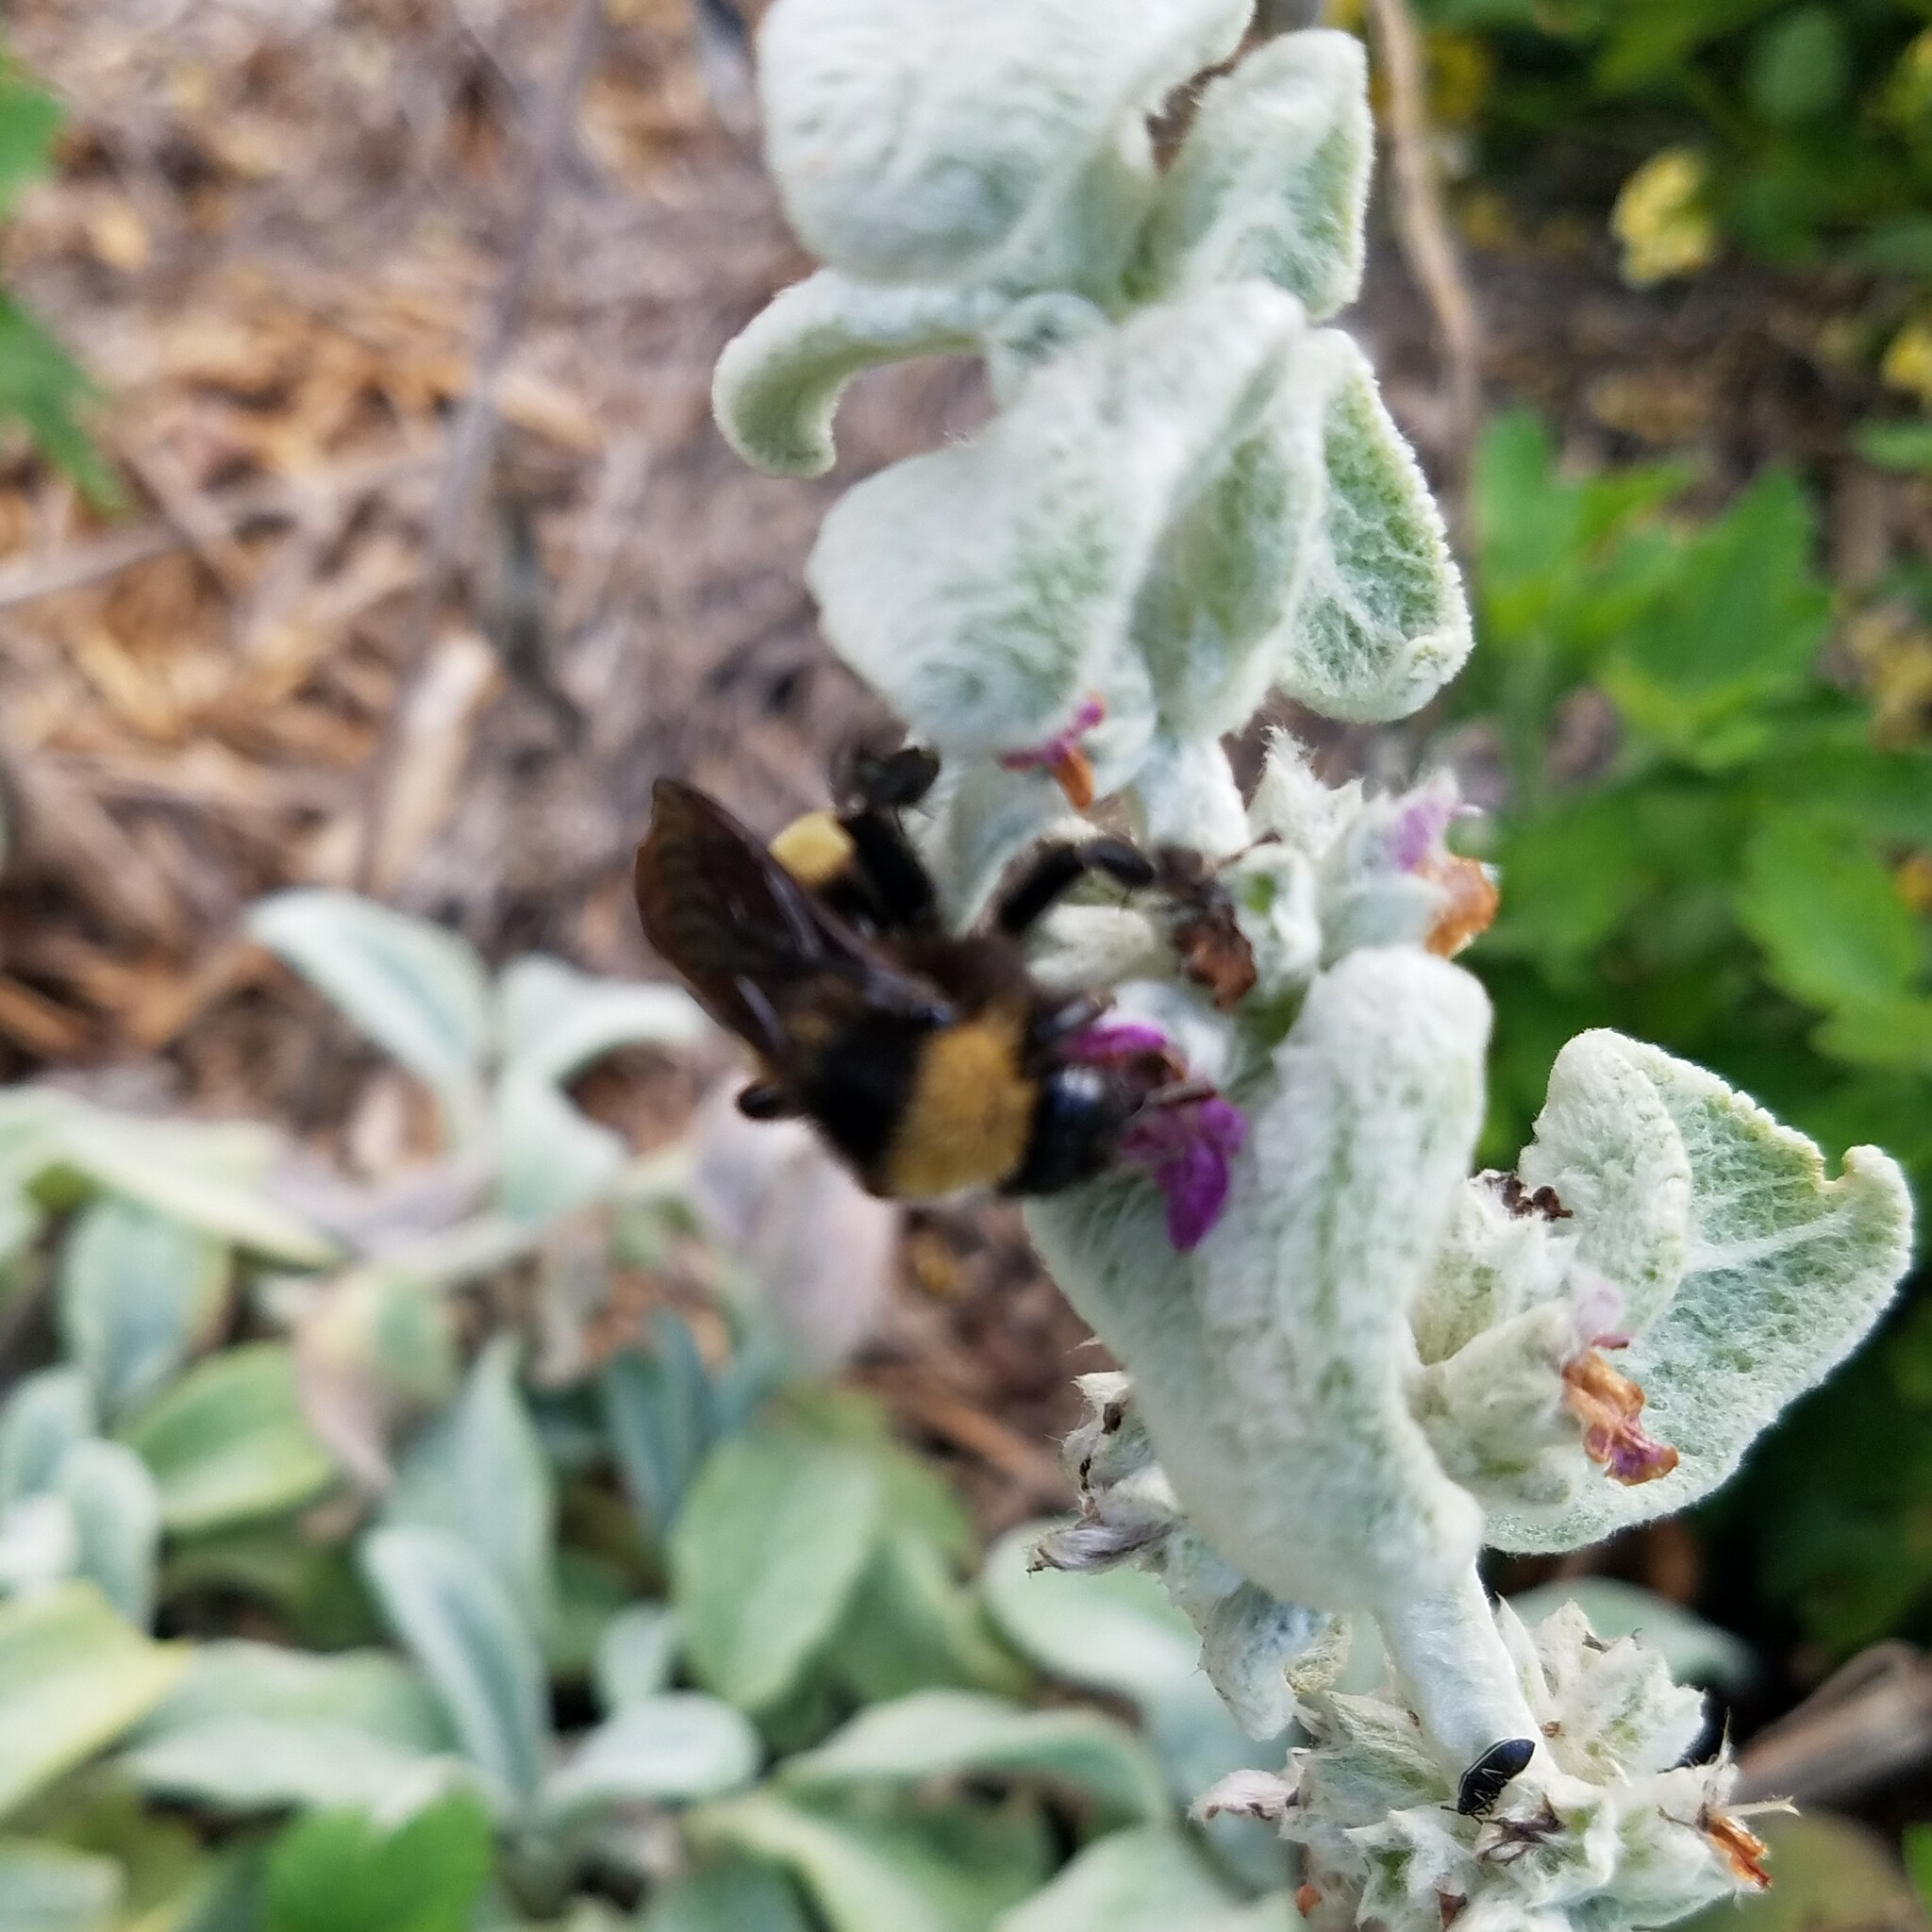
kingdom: Animalia
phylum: Arthropoda
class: Insecta
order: Hymenoptera
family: Apidae
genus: Bombus
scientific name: Bombus pensylvanicus
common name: Bumble bee
